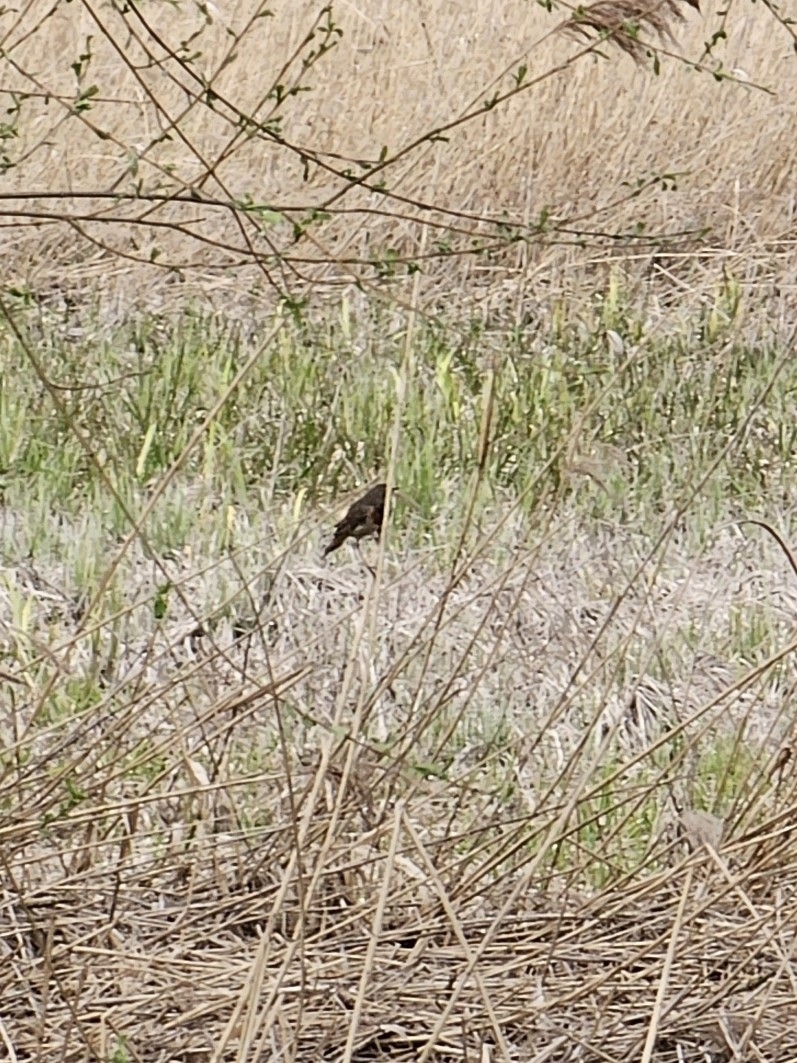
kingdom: Animalia
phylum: Chordata
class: Aves
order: Passeriformes
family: Muscicapidae
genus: Luscinia
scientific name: Luscinia svecica
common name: Bluethroat
